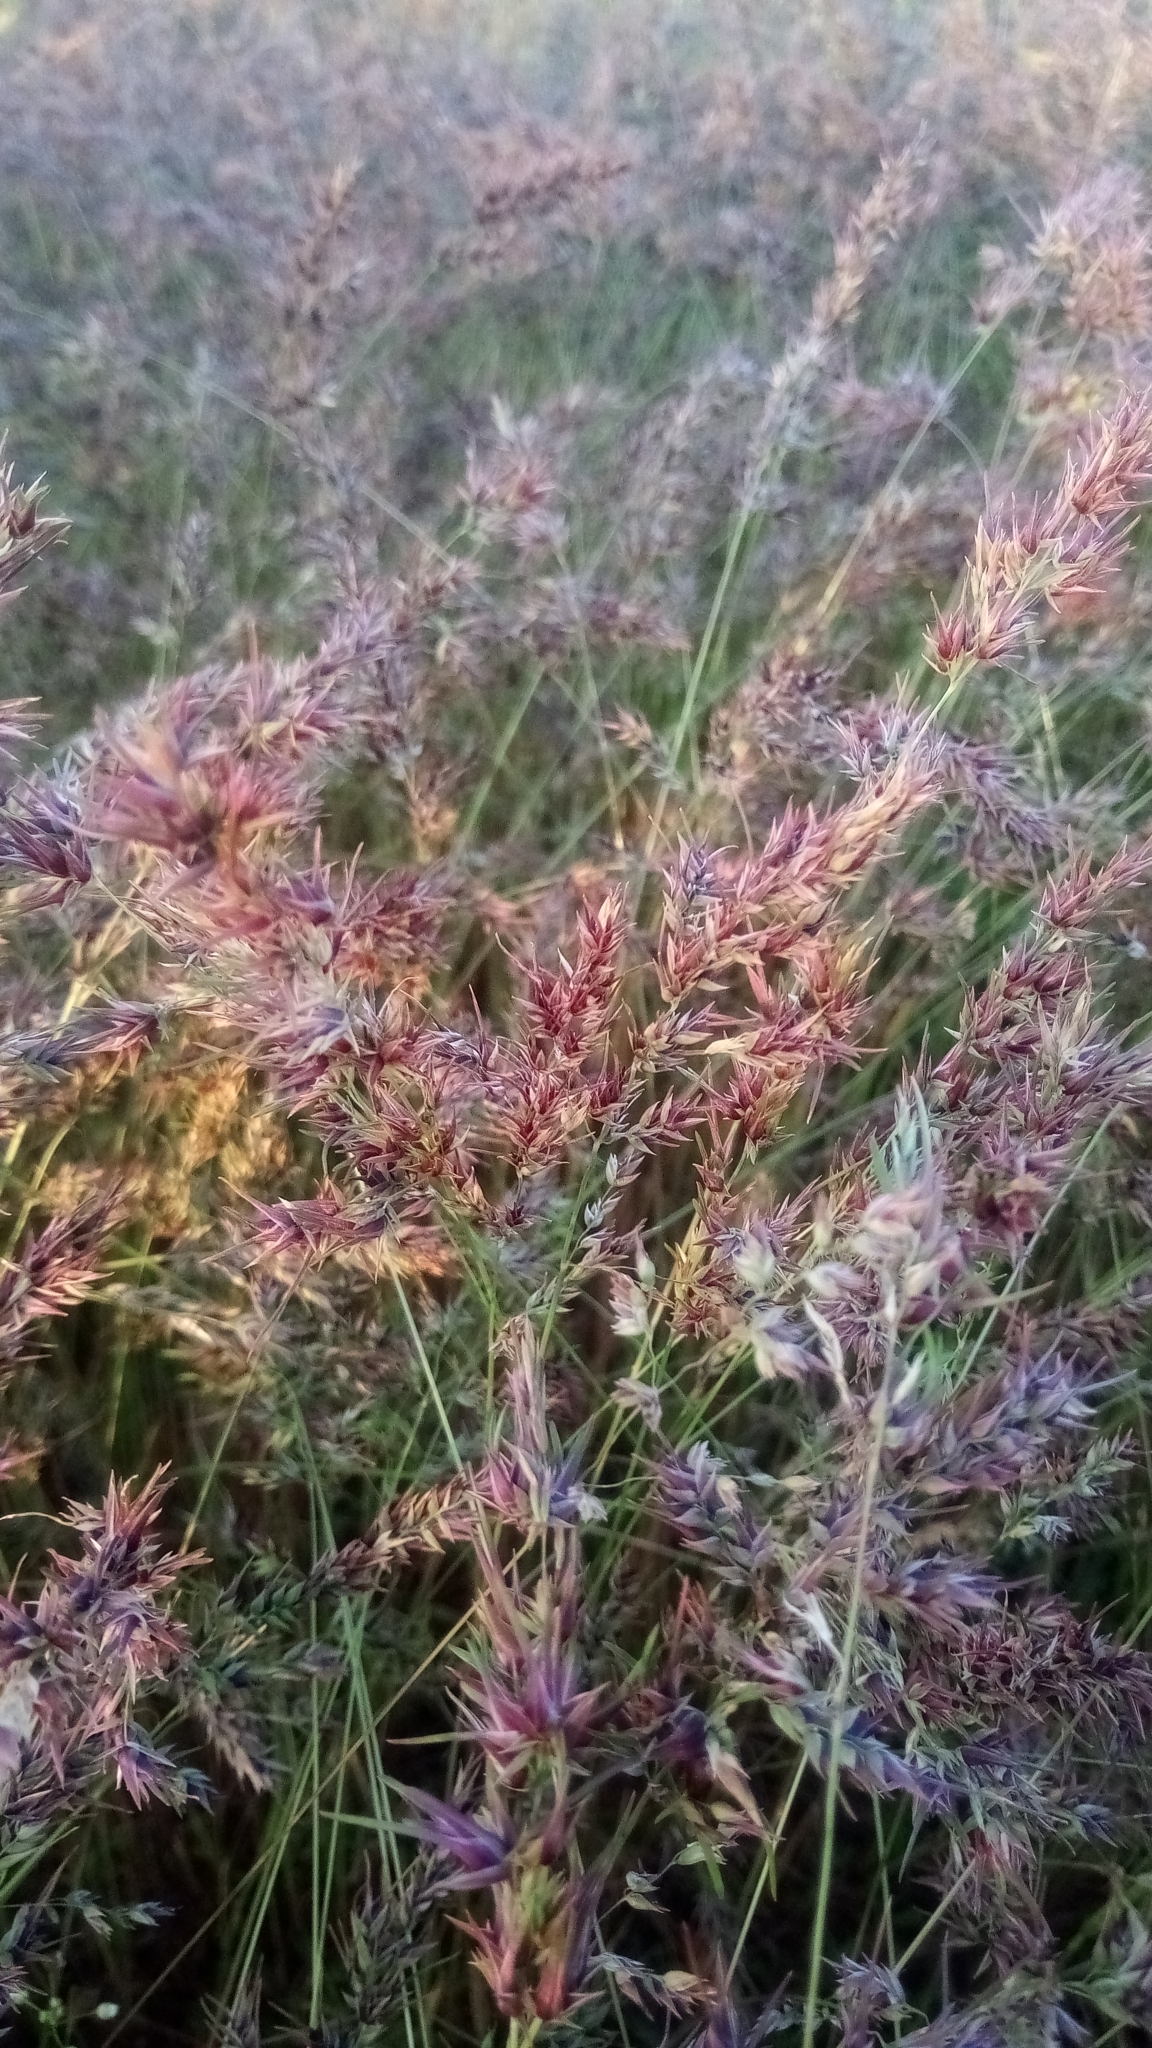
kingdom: Plantae
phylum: Tracheophyta
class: Liliopsida
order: Poales
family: Poaceae
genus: Poa
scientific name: Poa bulbosa
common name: Bulbous bluegrass
